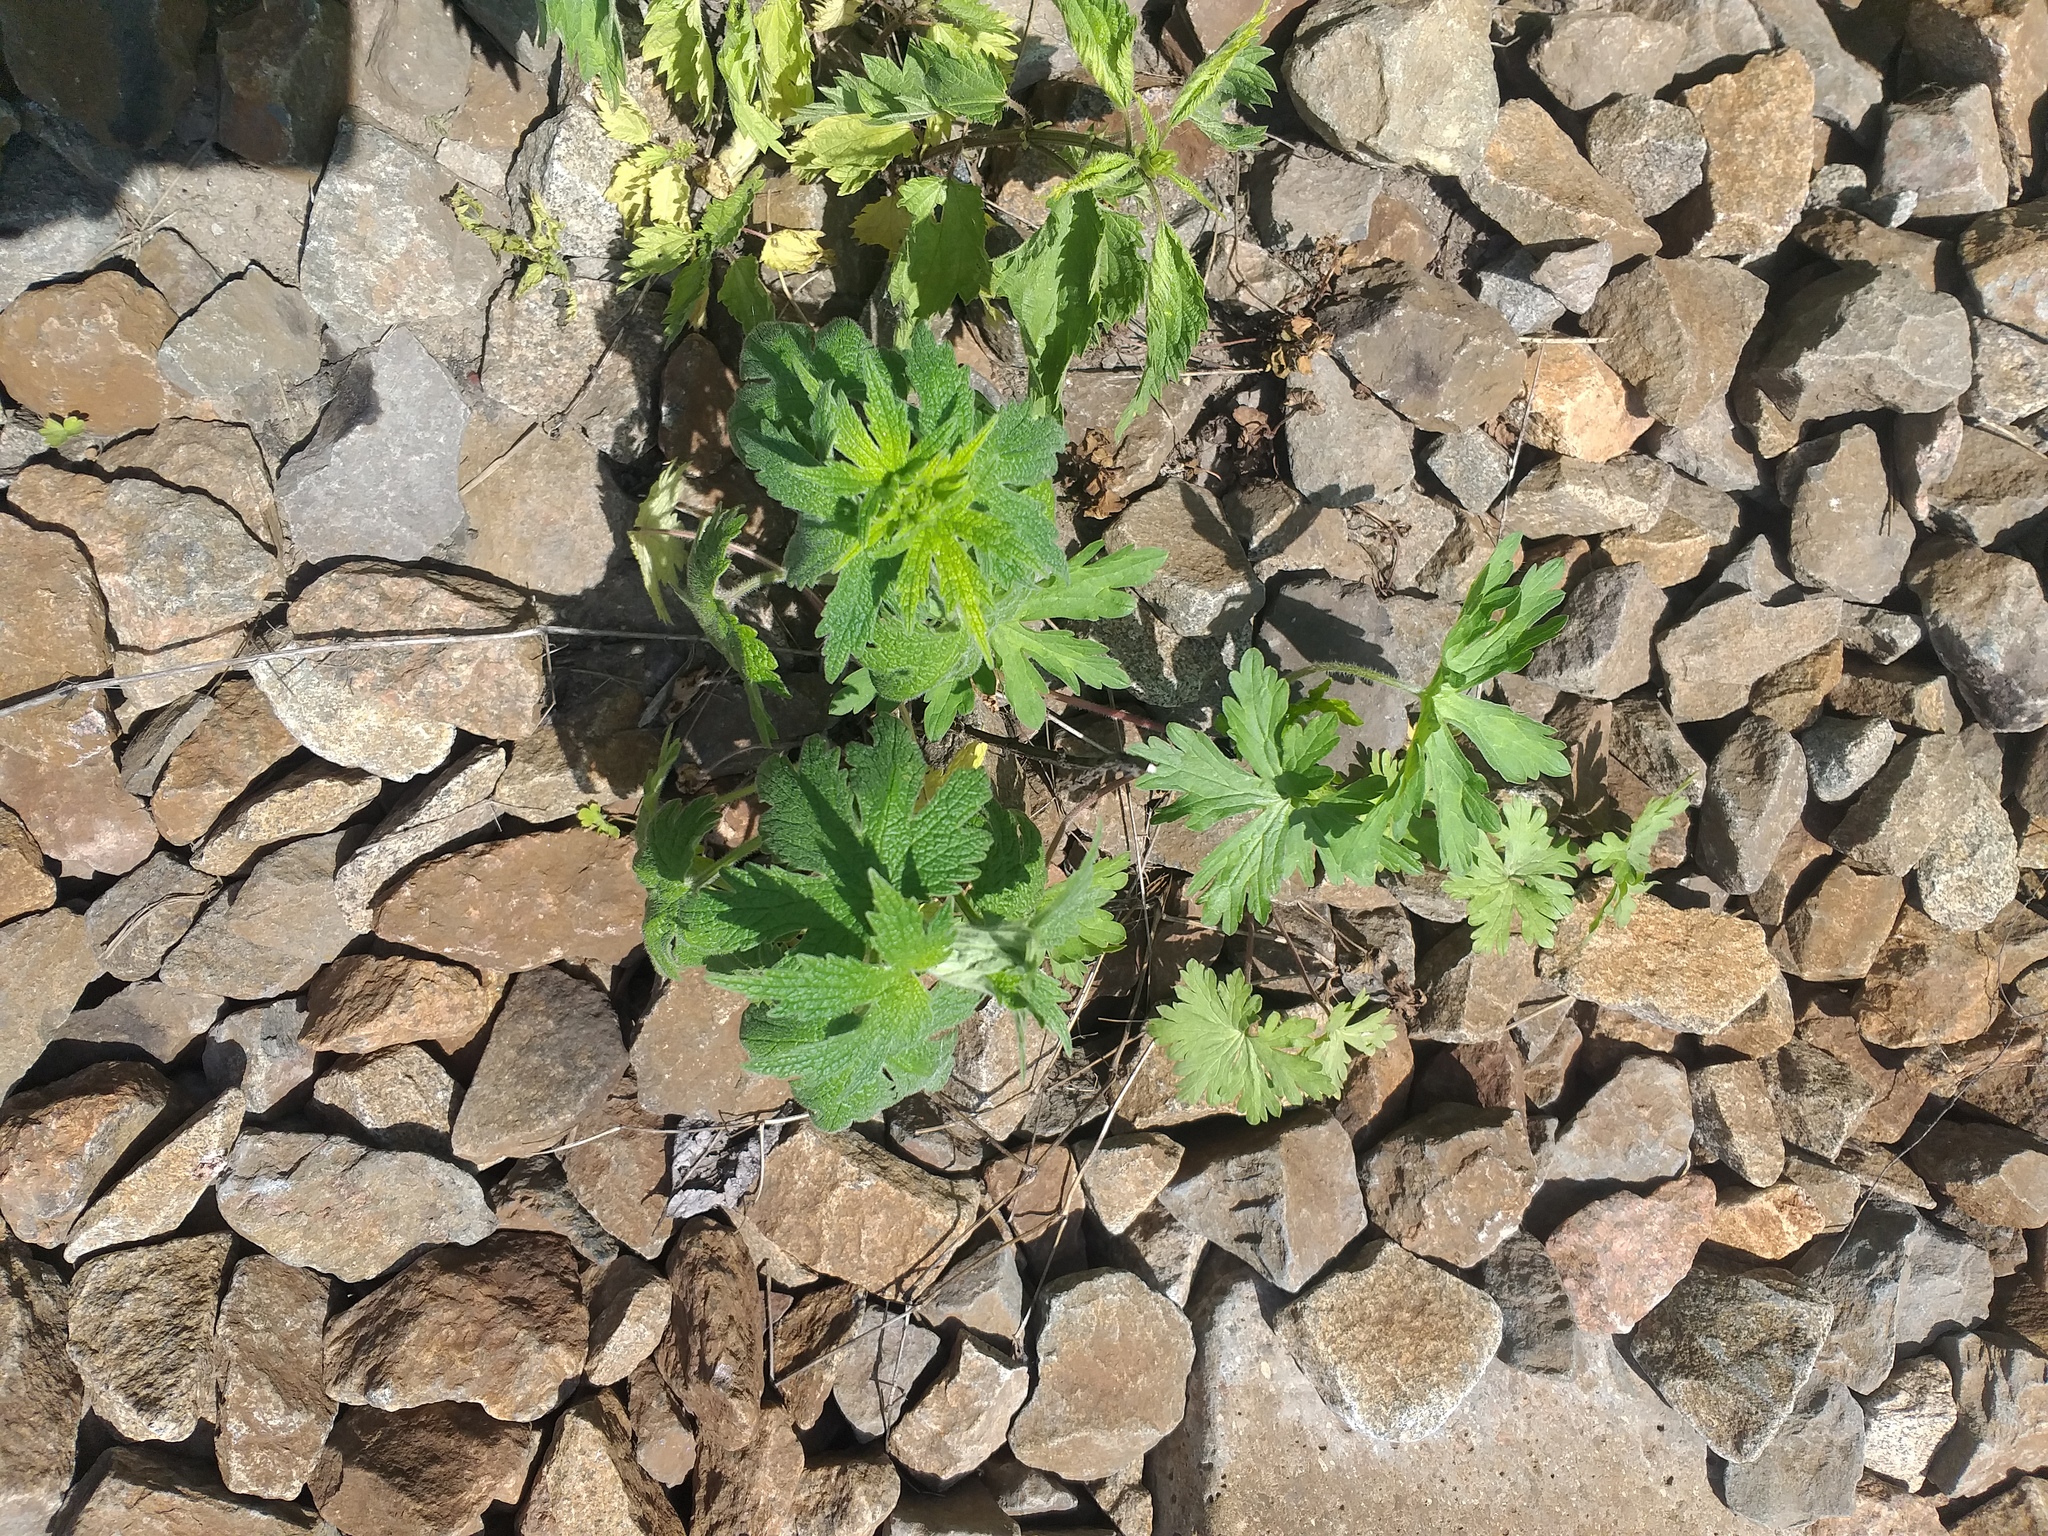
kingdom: Plantae
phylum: Tracheophyta
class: Magnoliopsida
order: Lamiales
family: Lamiaceae
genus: Leonurus
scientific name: Leonurus quinquelobatus
